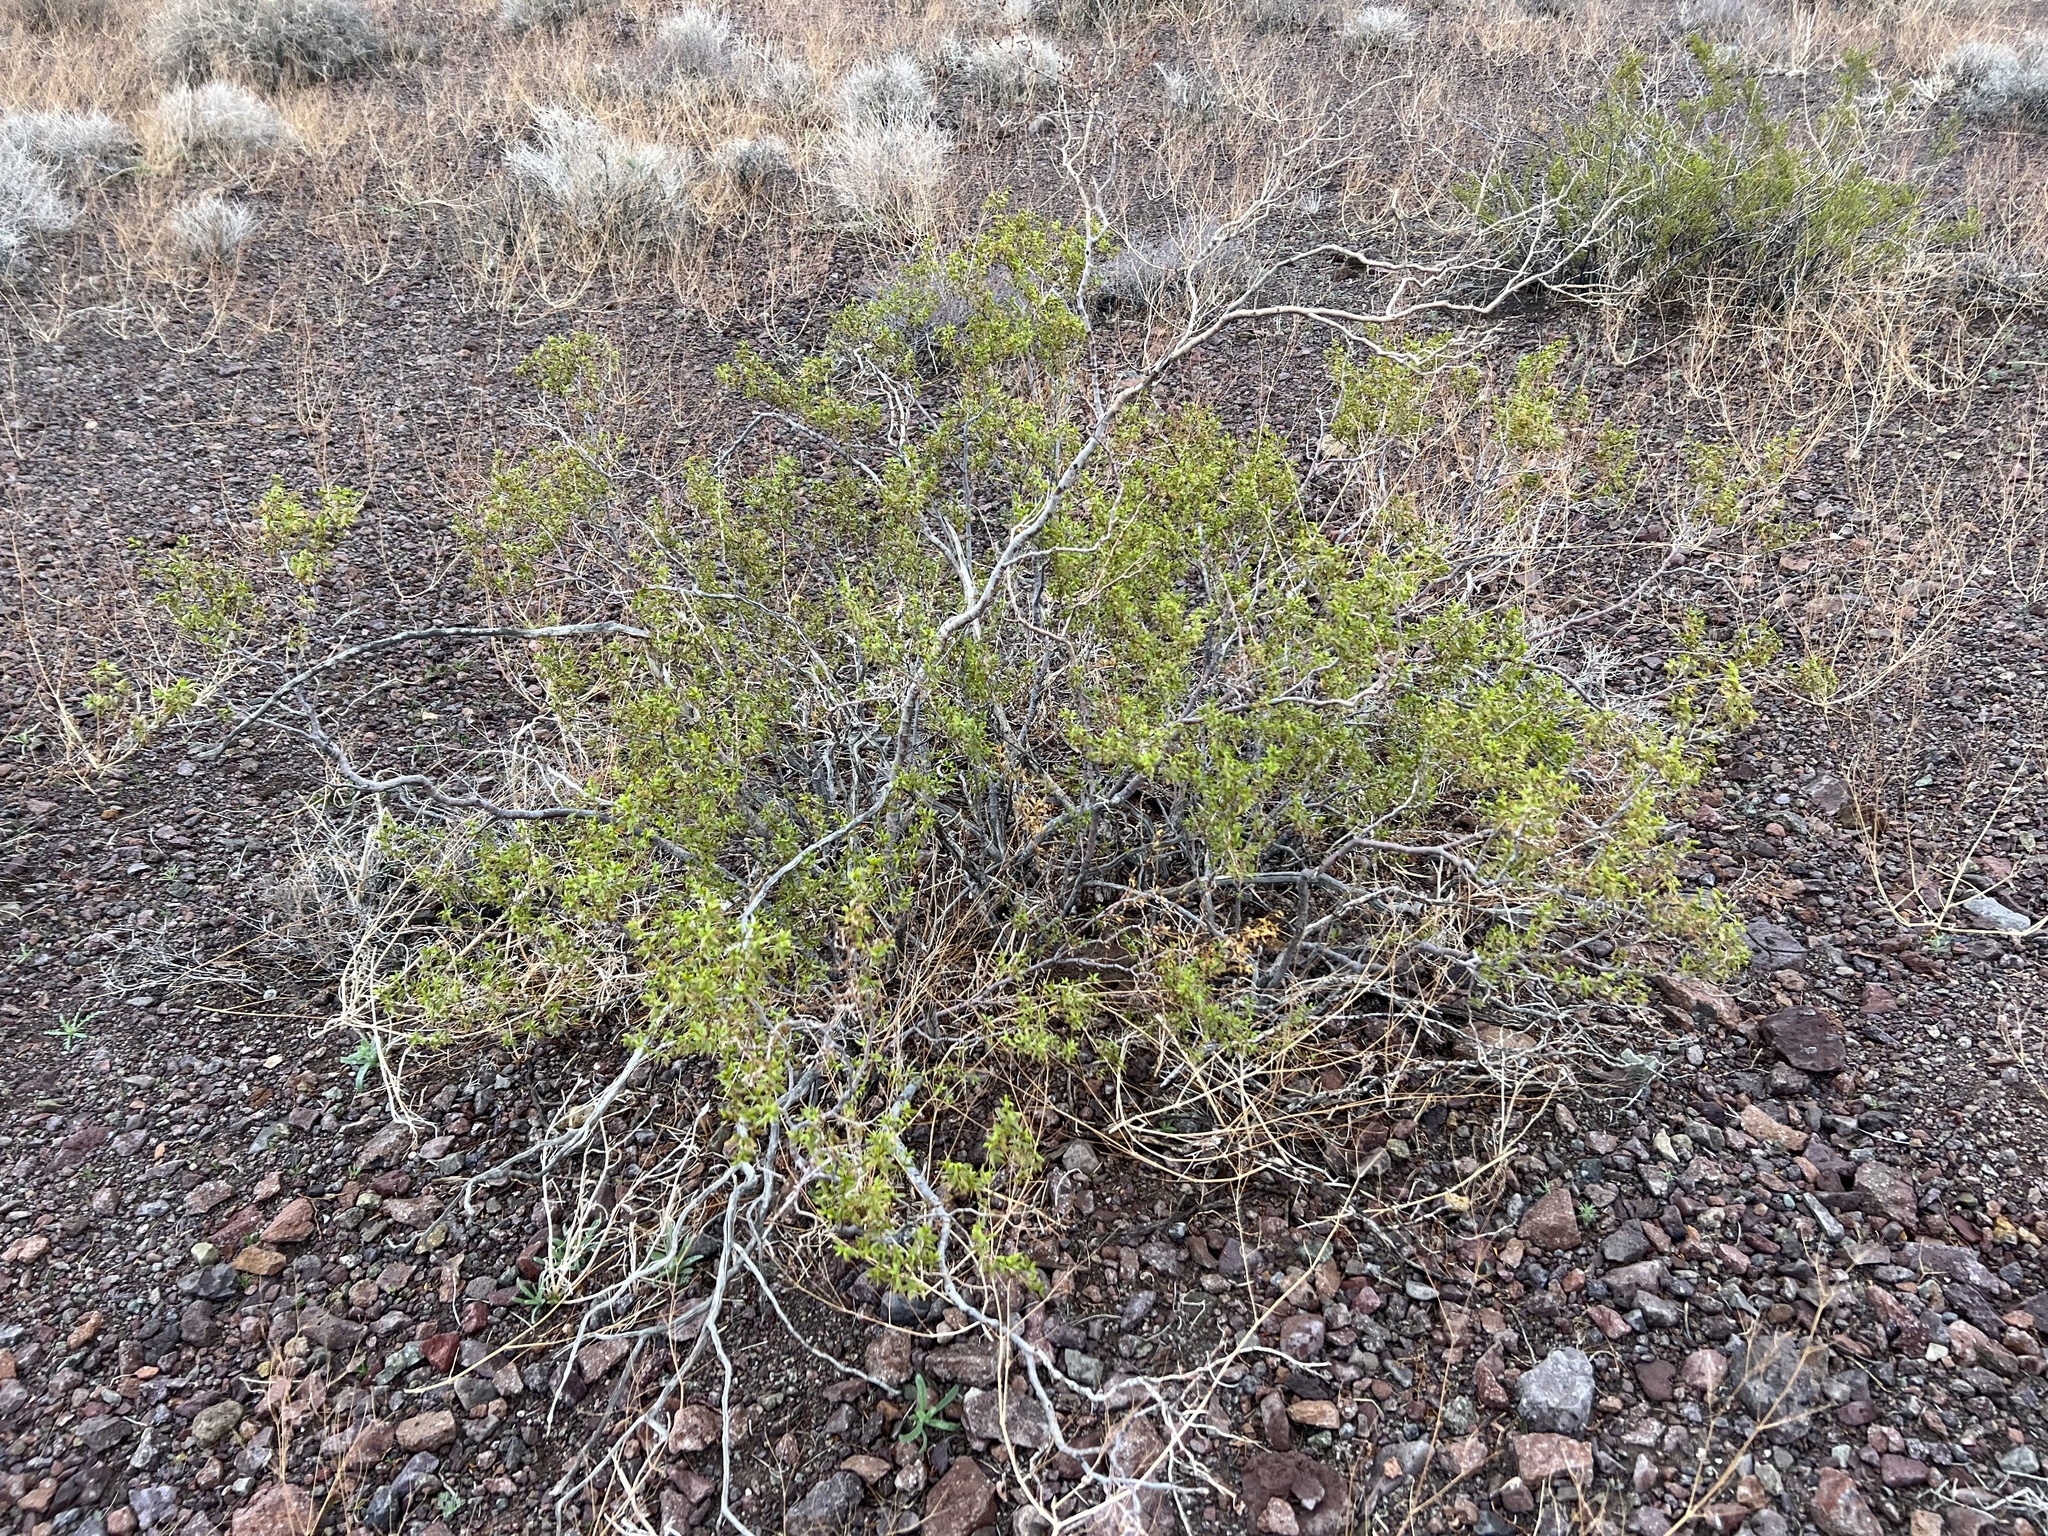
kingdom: Plantae
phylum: Tracheophyta
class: Magnoliopsida
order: Zygophyllales
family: Zygophyllaceae
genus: Larrea
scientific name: Larrea tridentata
